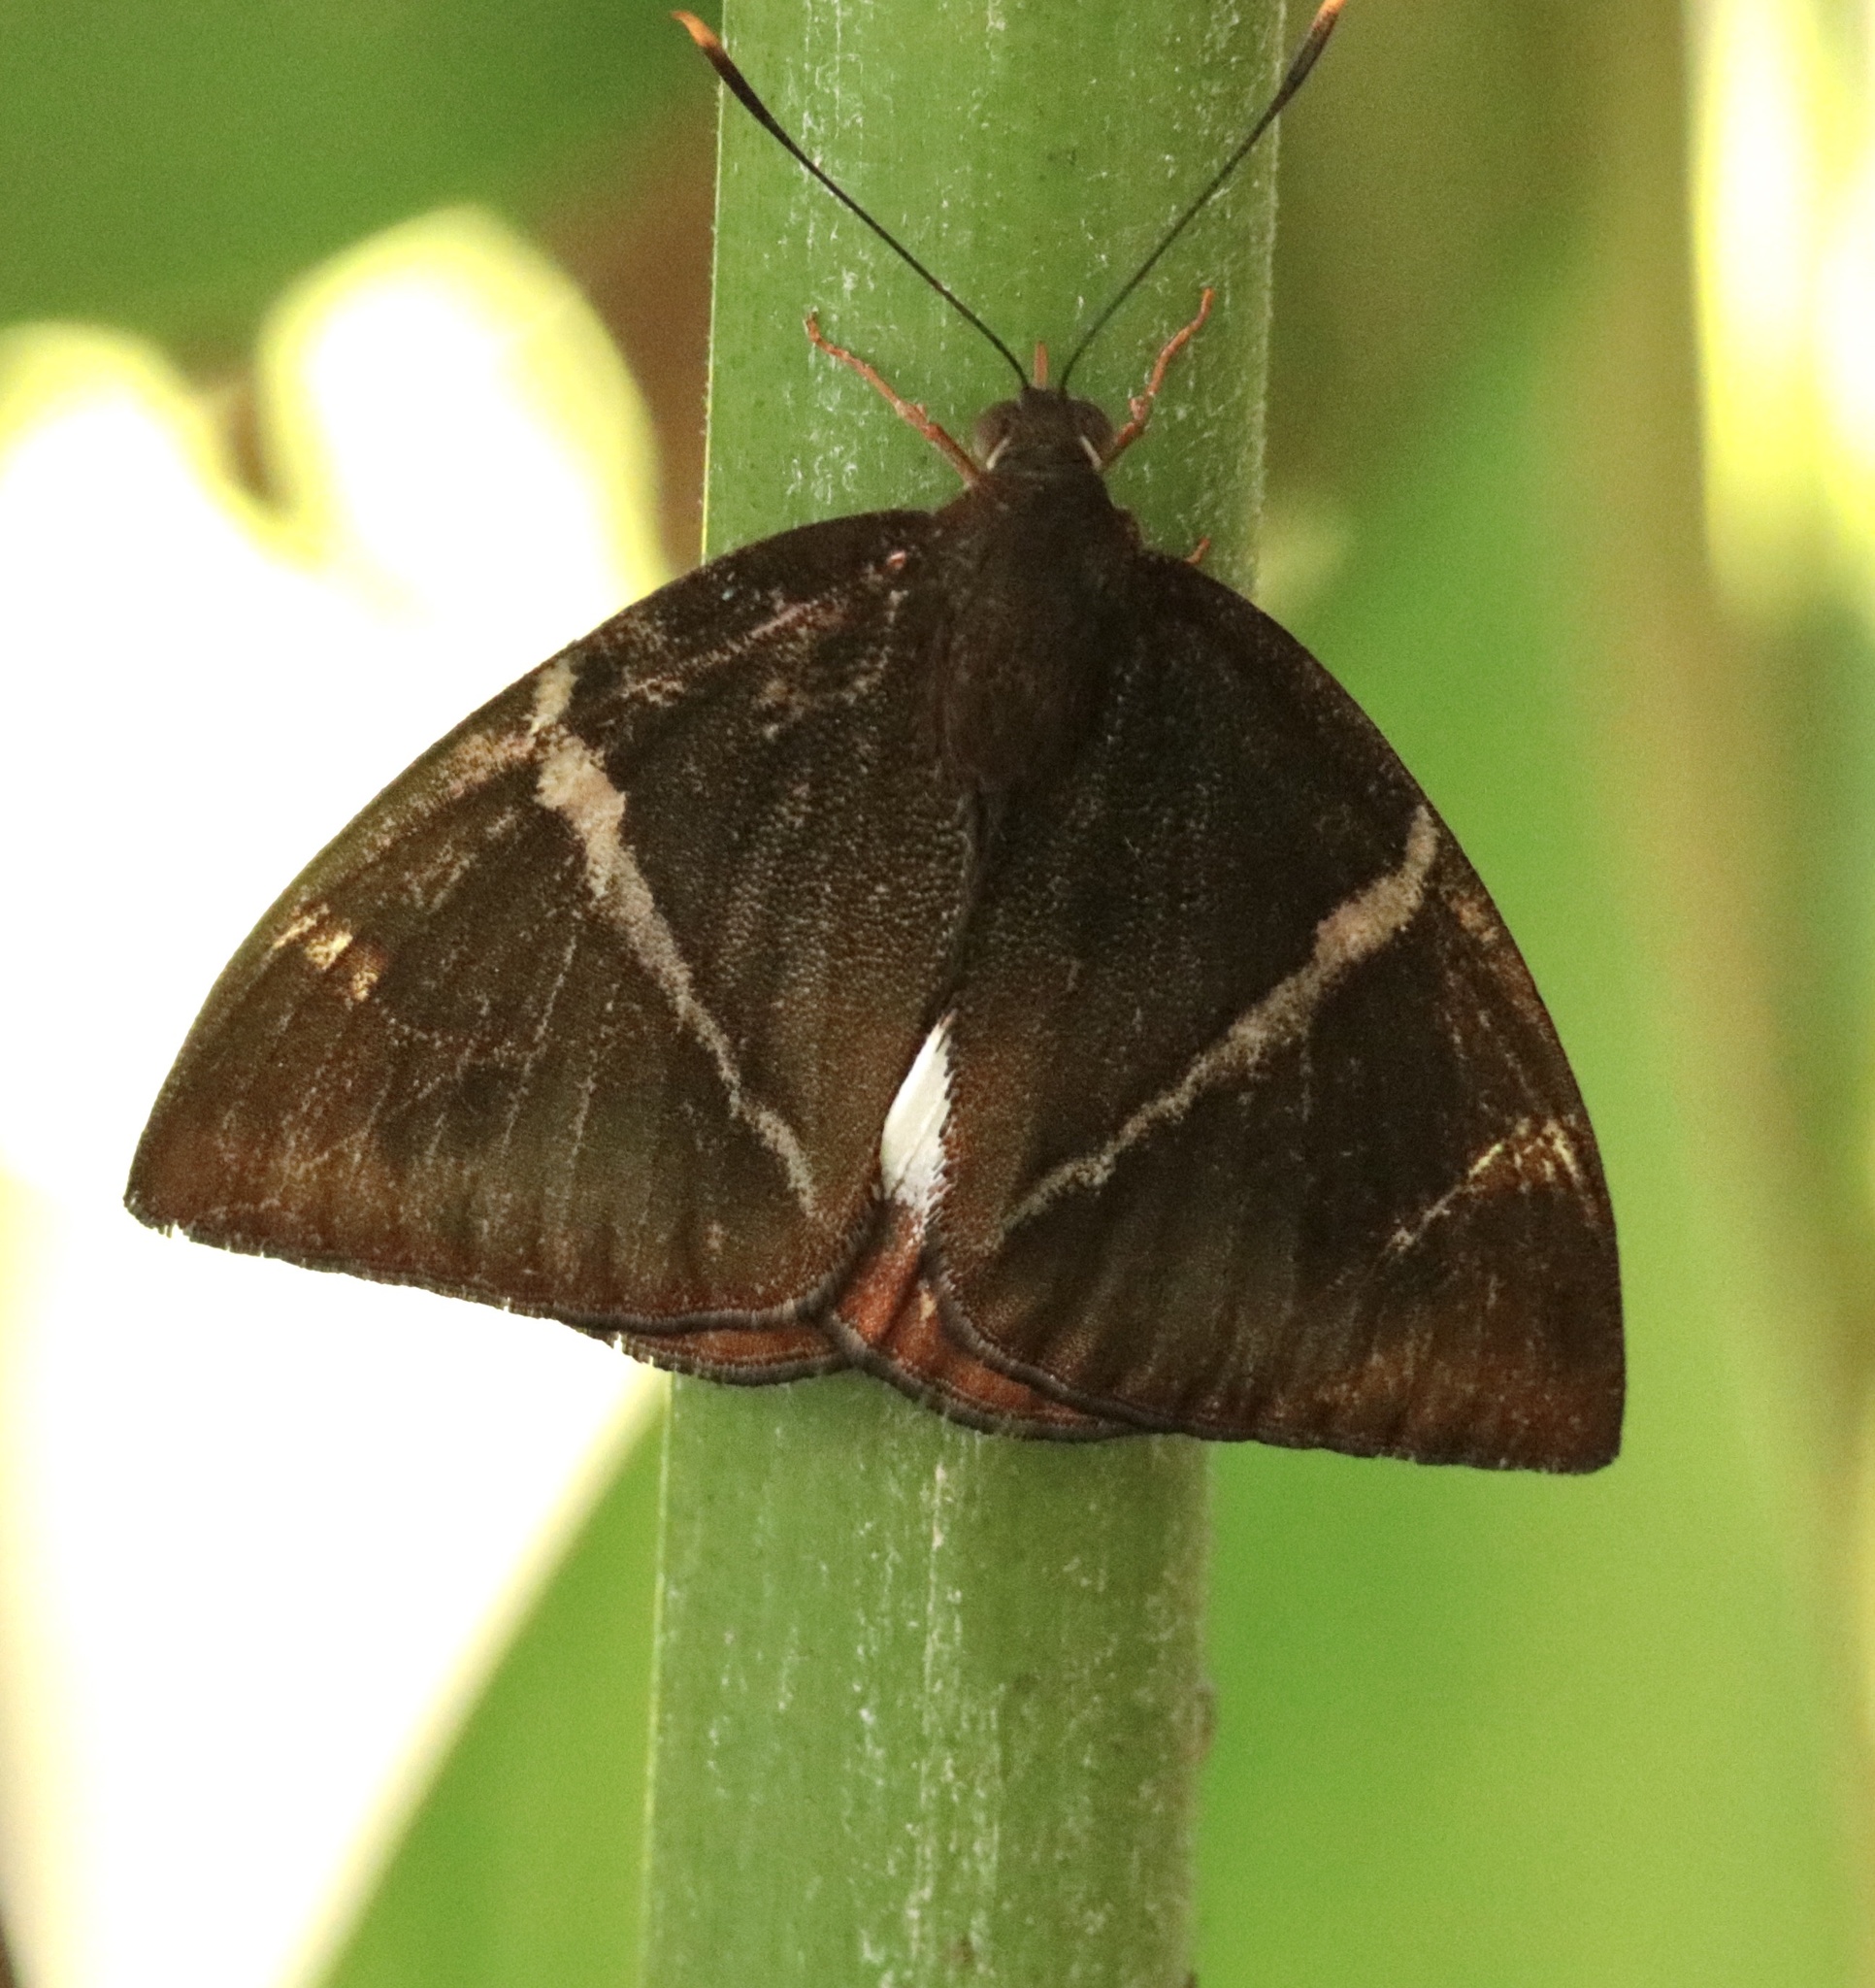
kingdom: Animalia
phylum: Arthropoda
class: Insecta
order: Lepidoptera
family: Castniidae
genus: Castniomera
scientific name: Castniomera atymnius
